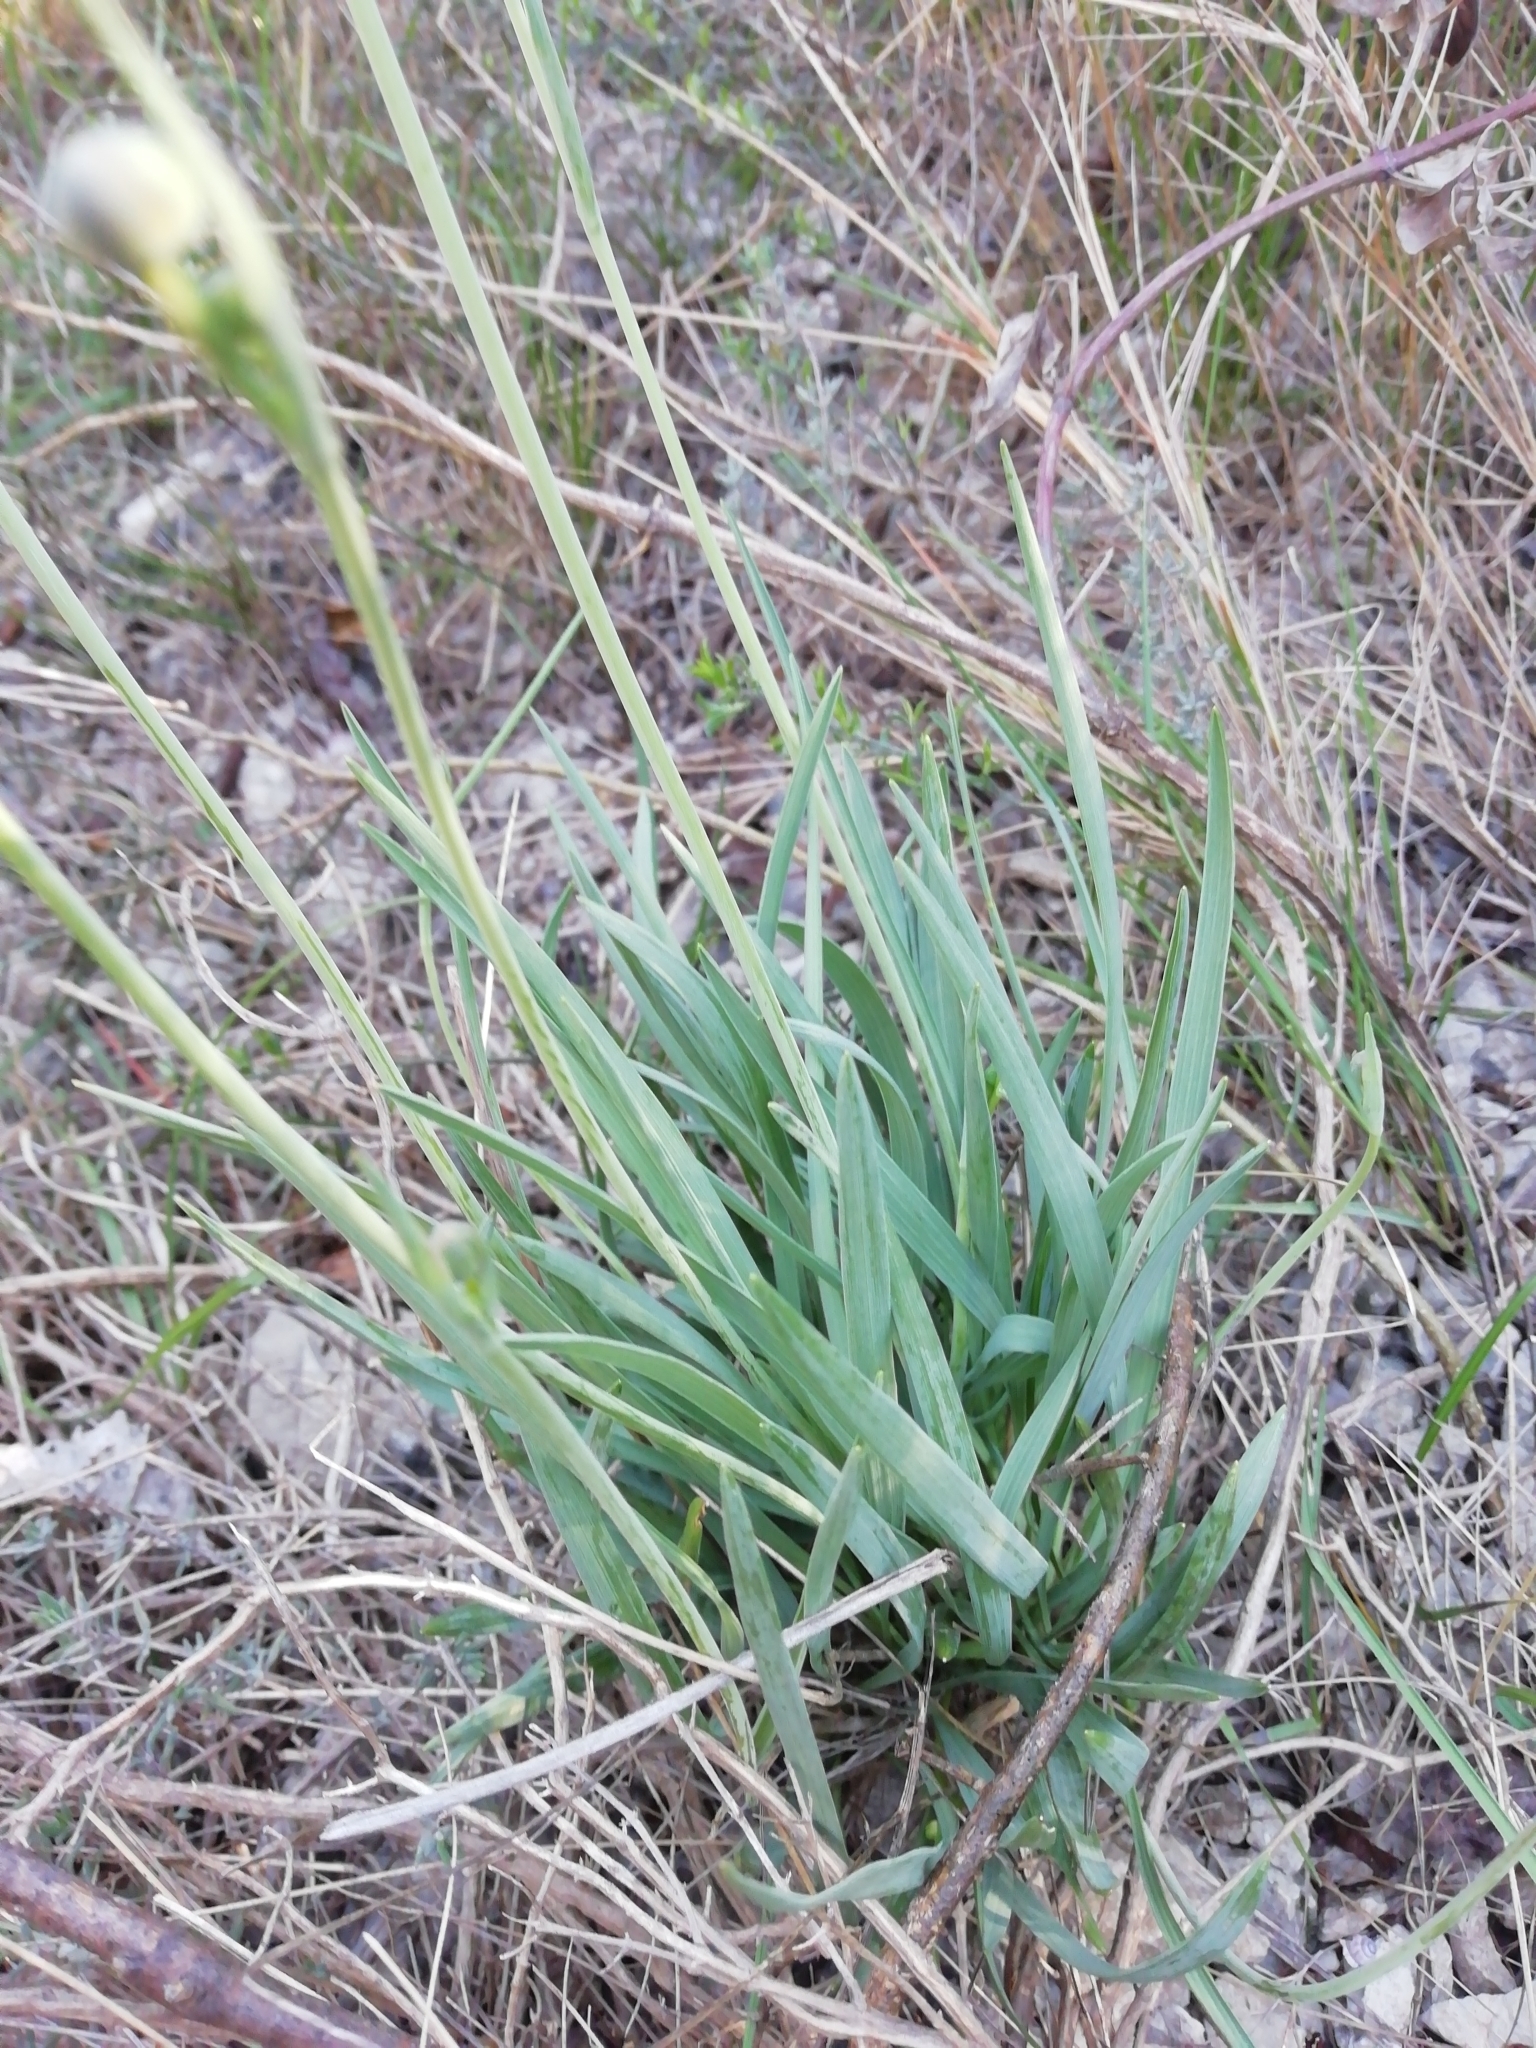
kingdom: Plantae
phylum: Tracheophyta
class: Magnoliopsida
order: Ranunculales
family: Ranunculaceae
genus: Ranunculus
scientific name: Ranunculus gramineus
